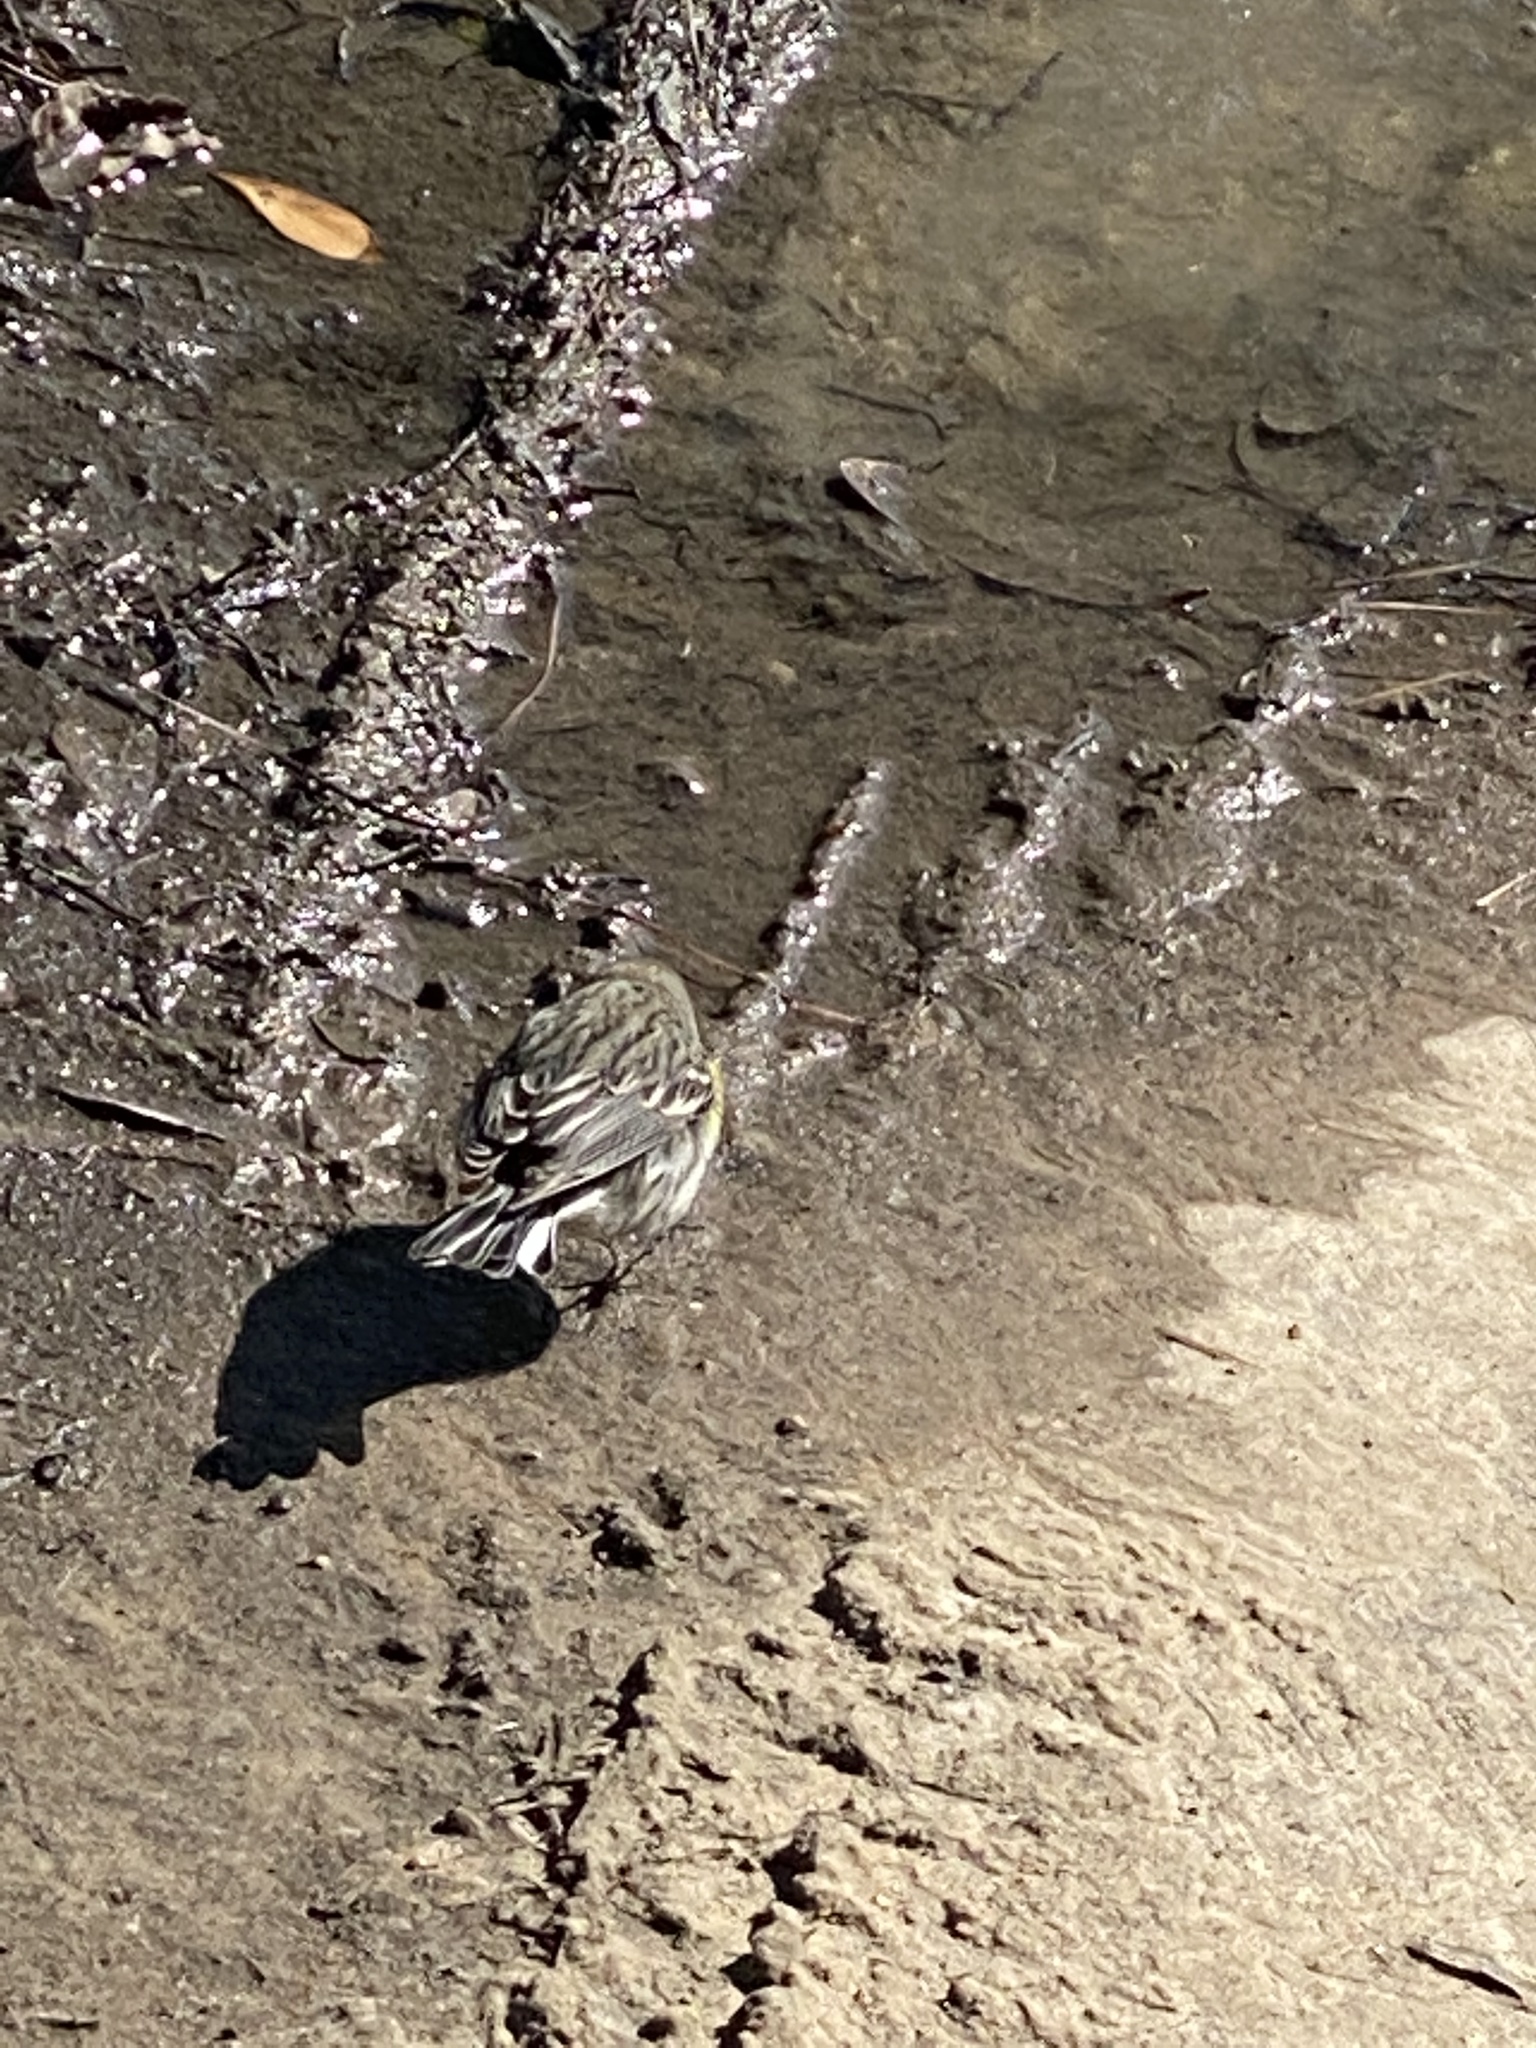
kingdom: Animalia
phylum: Chordata
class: Aves
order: Passeriformes
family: Parulidae
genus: Setophaga
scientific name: Setophaga coronata
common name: Myrtle warbler
